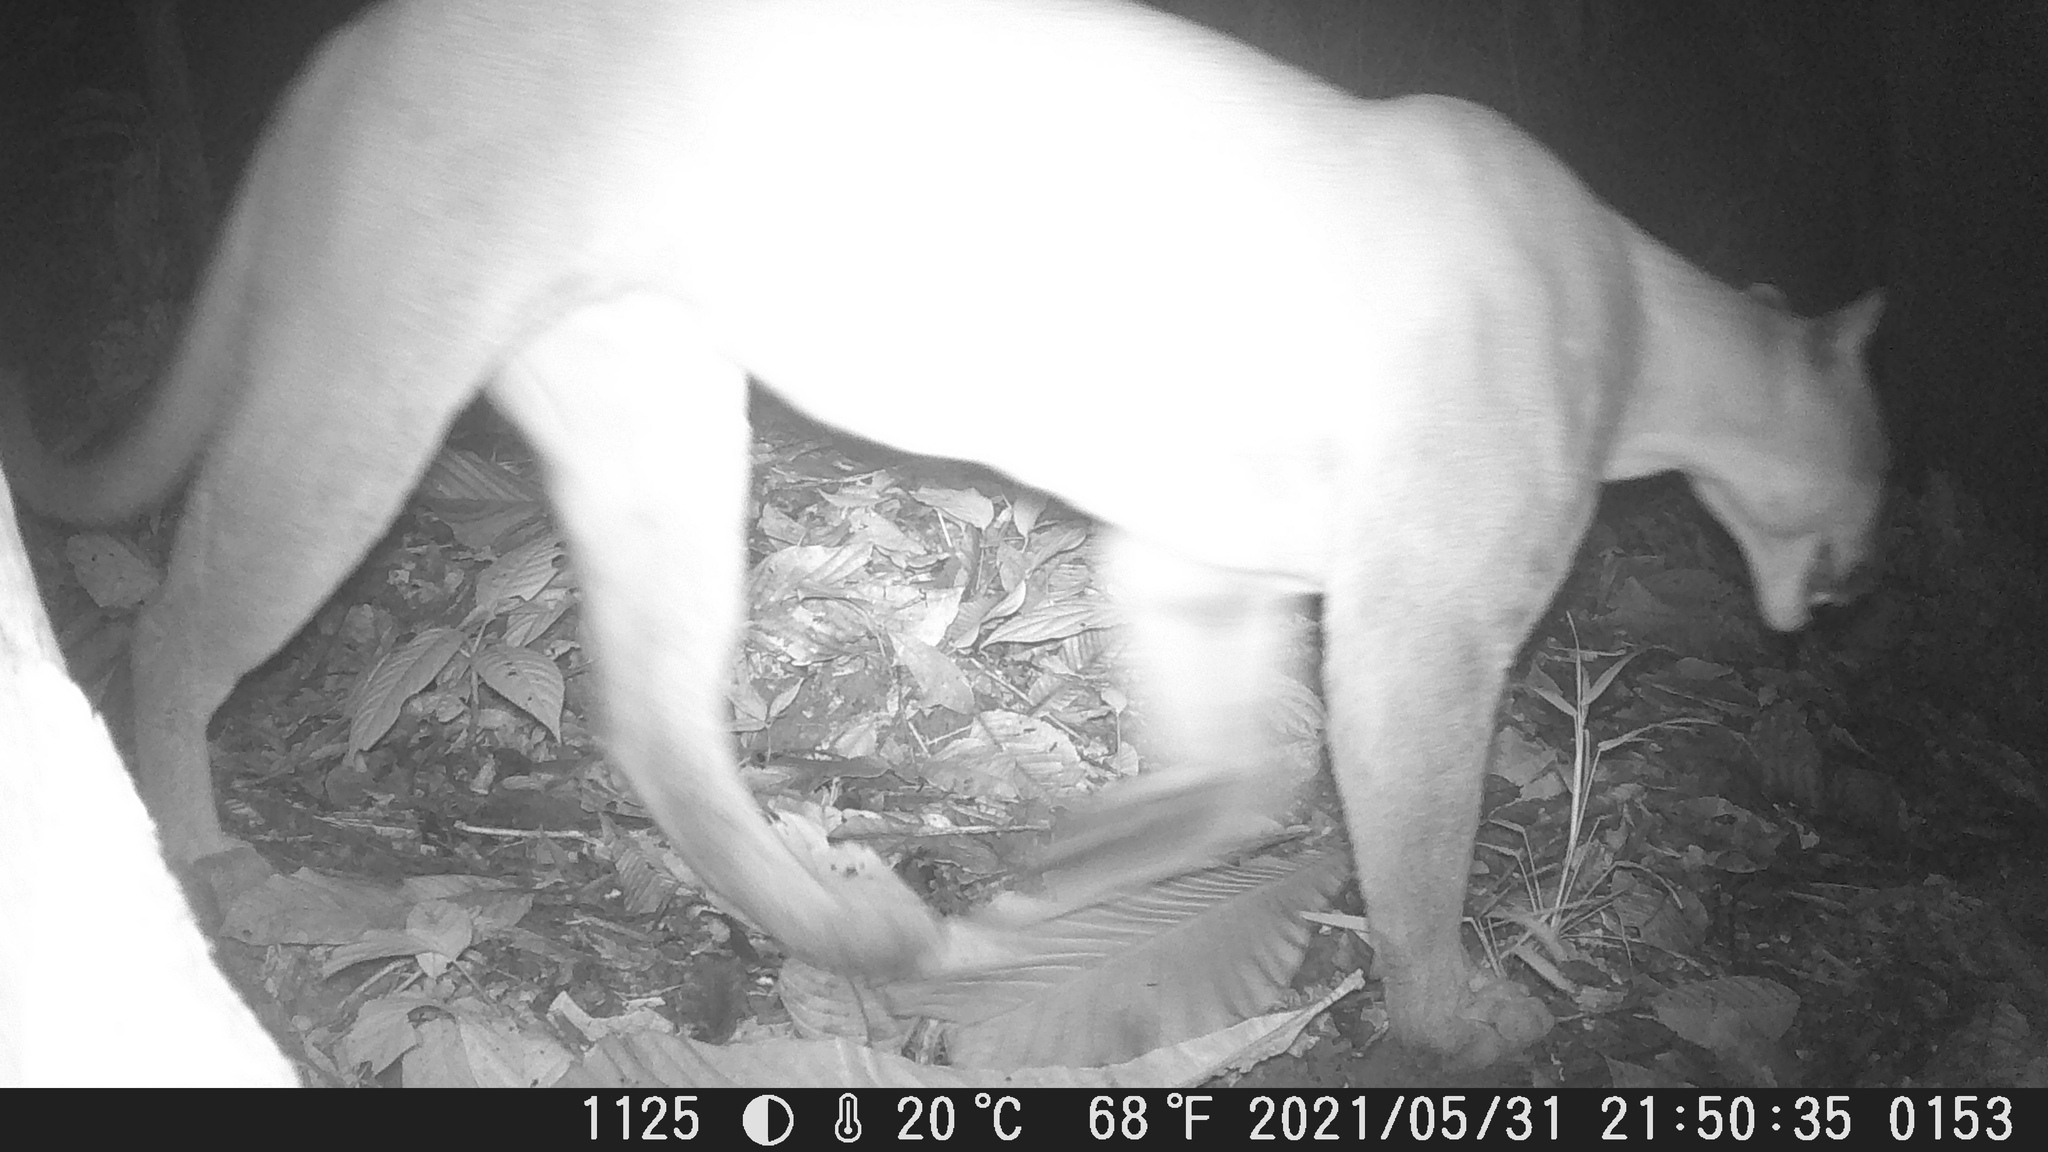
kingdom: Animalia
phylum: Chordata
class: Mammalia
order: Carnivora
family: Felidae
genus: Puma
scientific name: Puma concolor
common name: Puma
